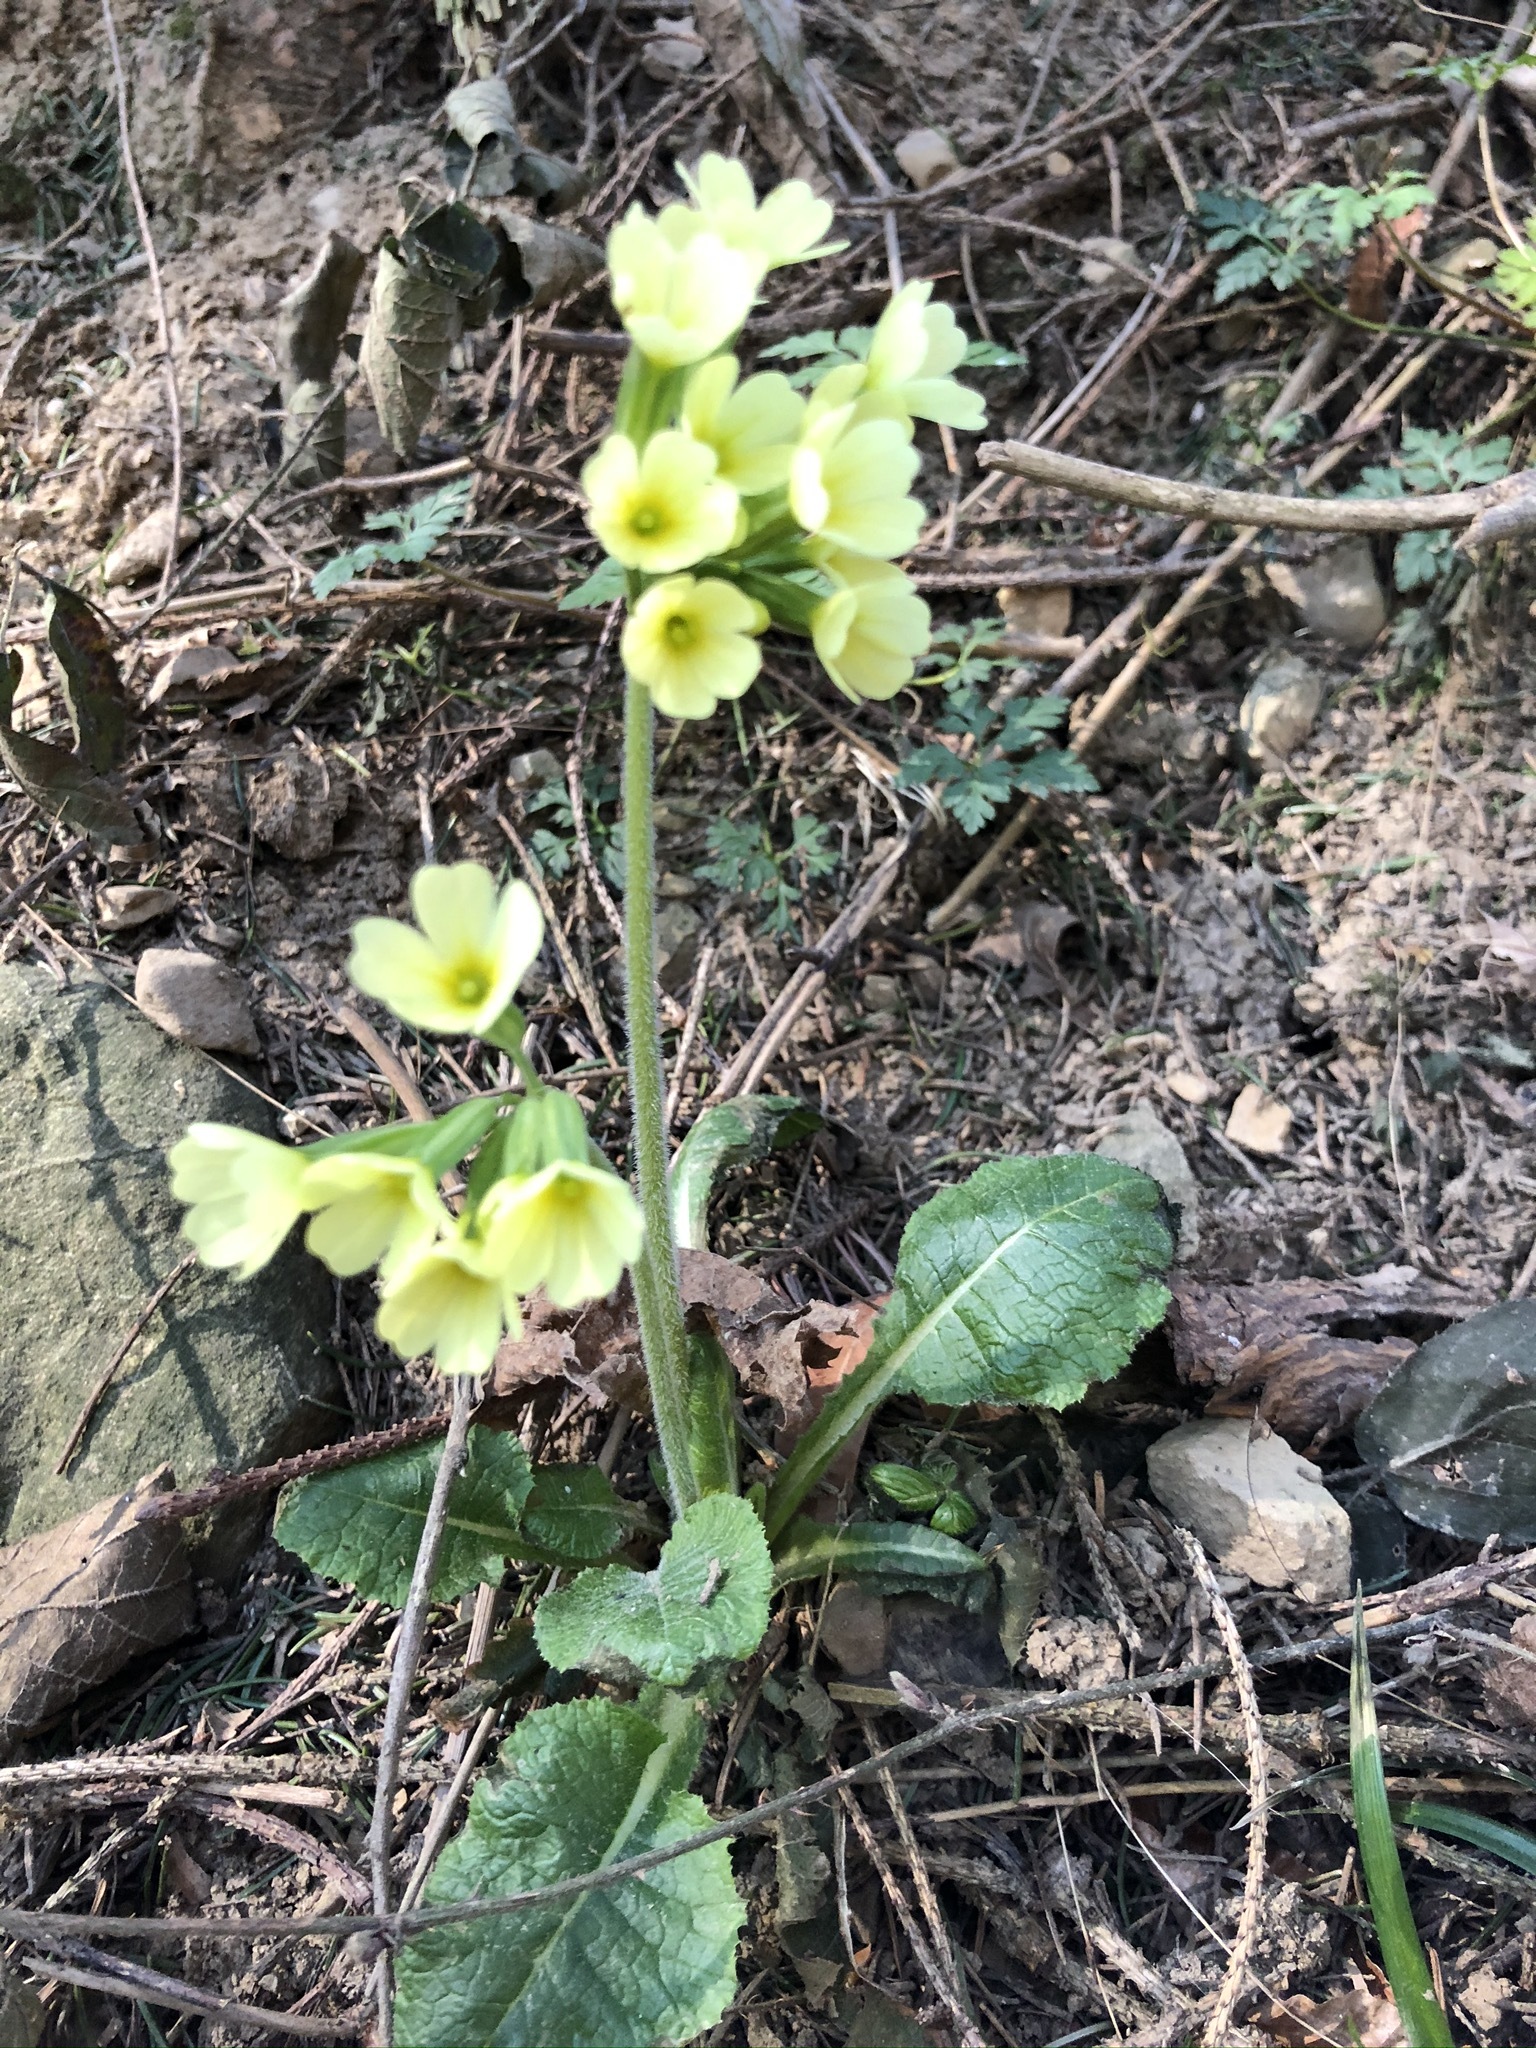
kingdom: Plantae
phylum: Tracheophyta
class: Magnoliopsida
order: Ericales
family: Primulaceae
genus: Primula
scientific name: Primula elatior
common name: Oxlip
